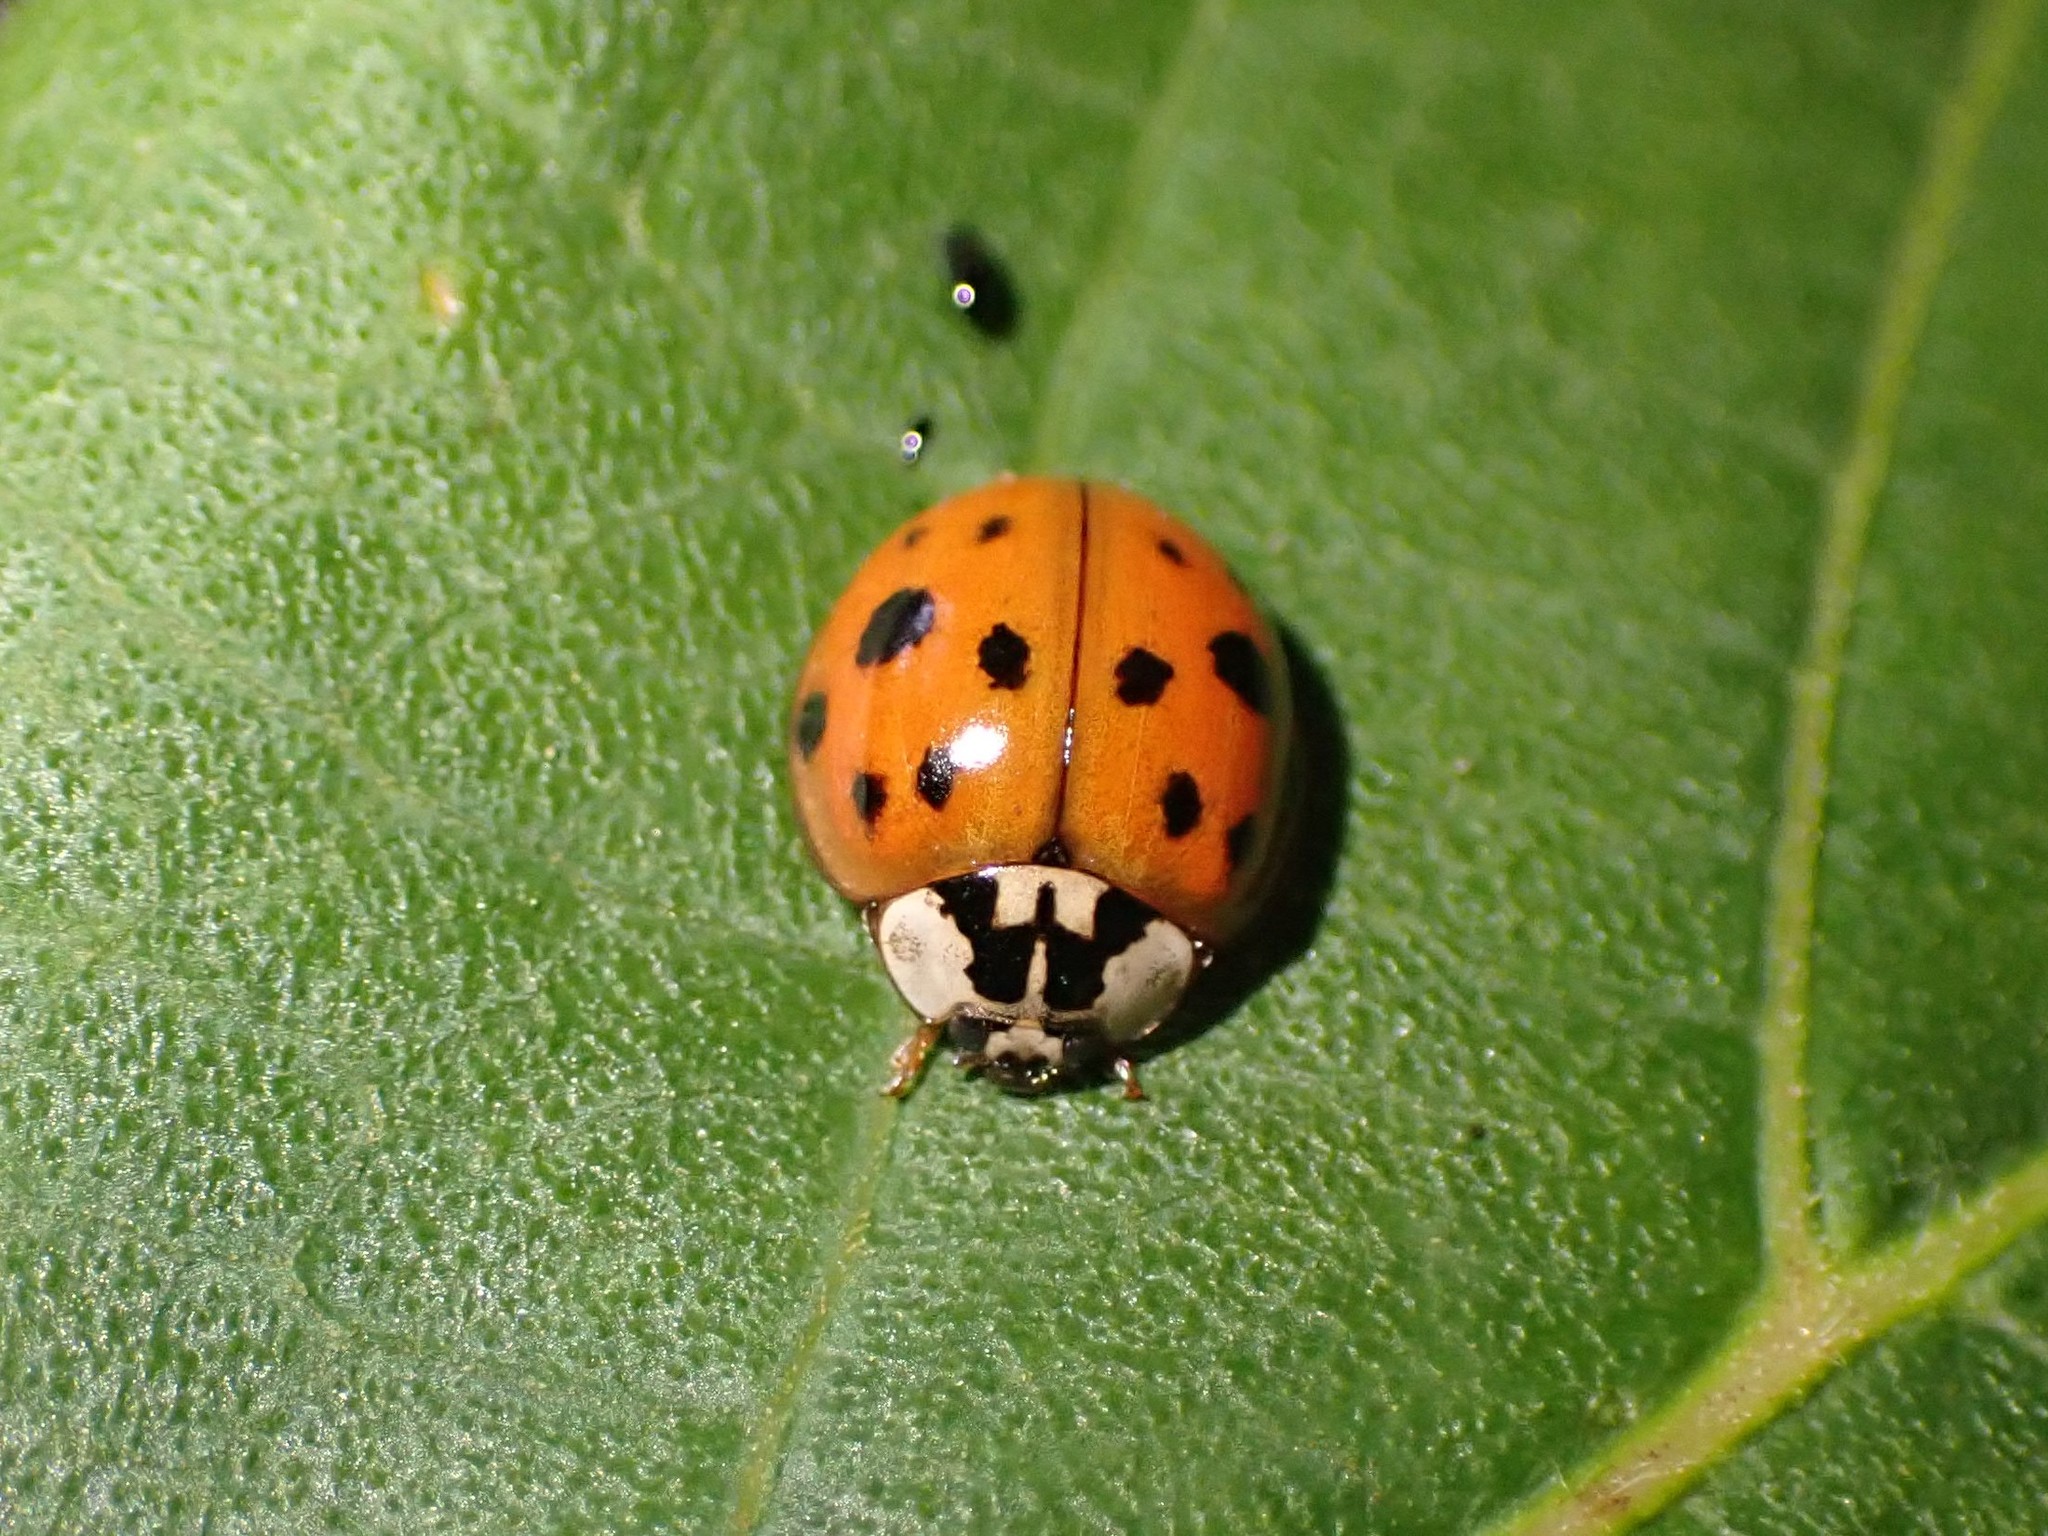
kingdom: Animalia
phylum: Arthropoda
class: Insecta
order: Coleoptera
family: Coccinellidae
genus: Harmonia
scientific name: Harmonia axyridis
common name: Harlequin ladybird
